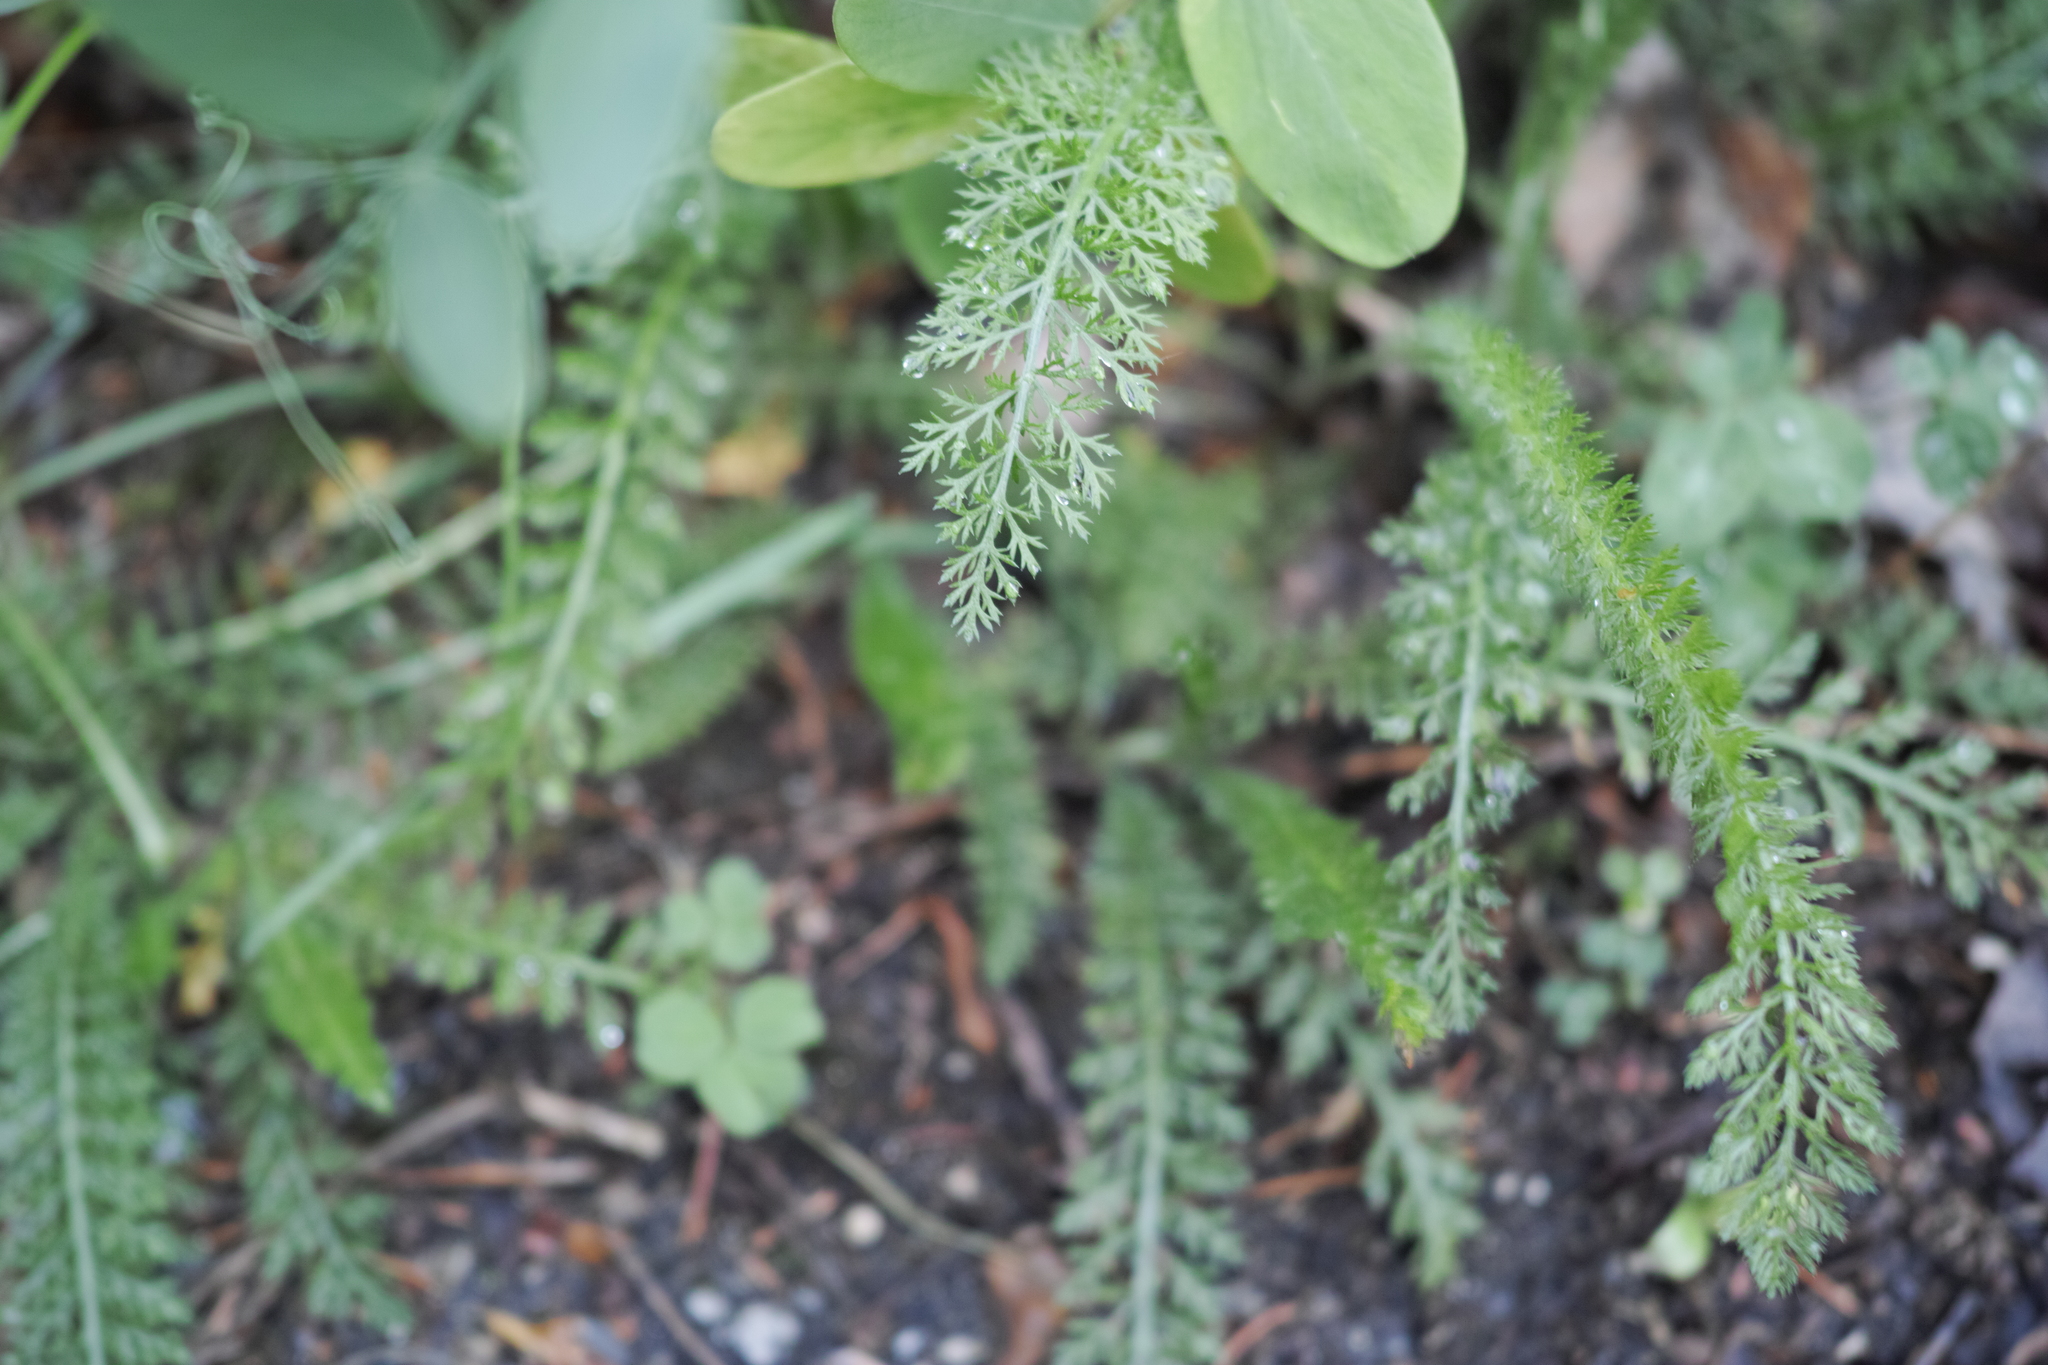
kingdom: Plantae
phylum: Tracheophyta
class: Magnoliopsida
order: Asterales
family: Asteraceae
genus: Achillea
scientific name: Achillea millefolium
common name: Yarrow
